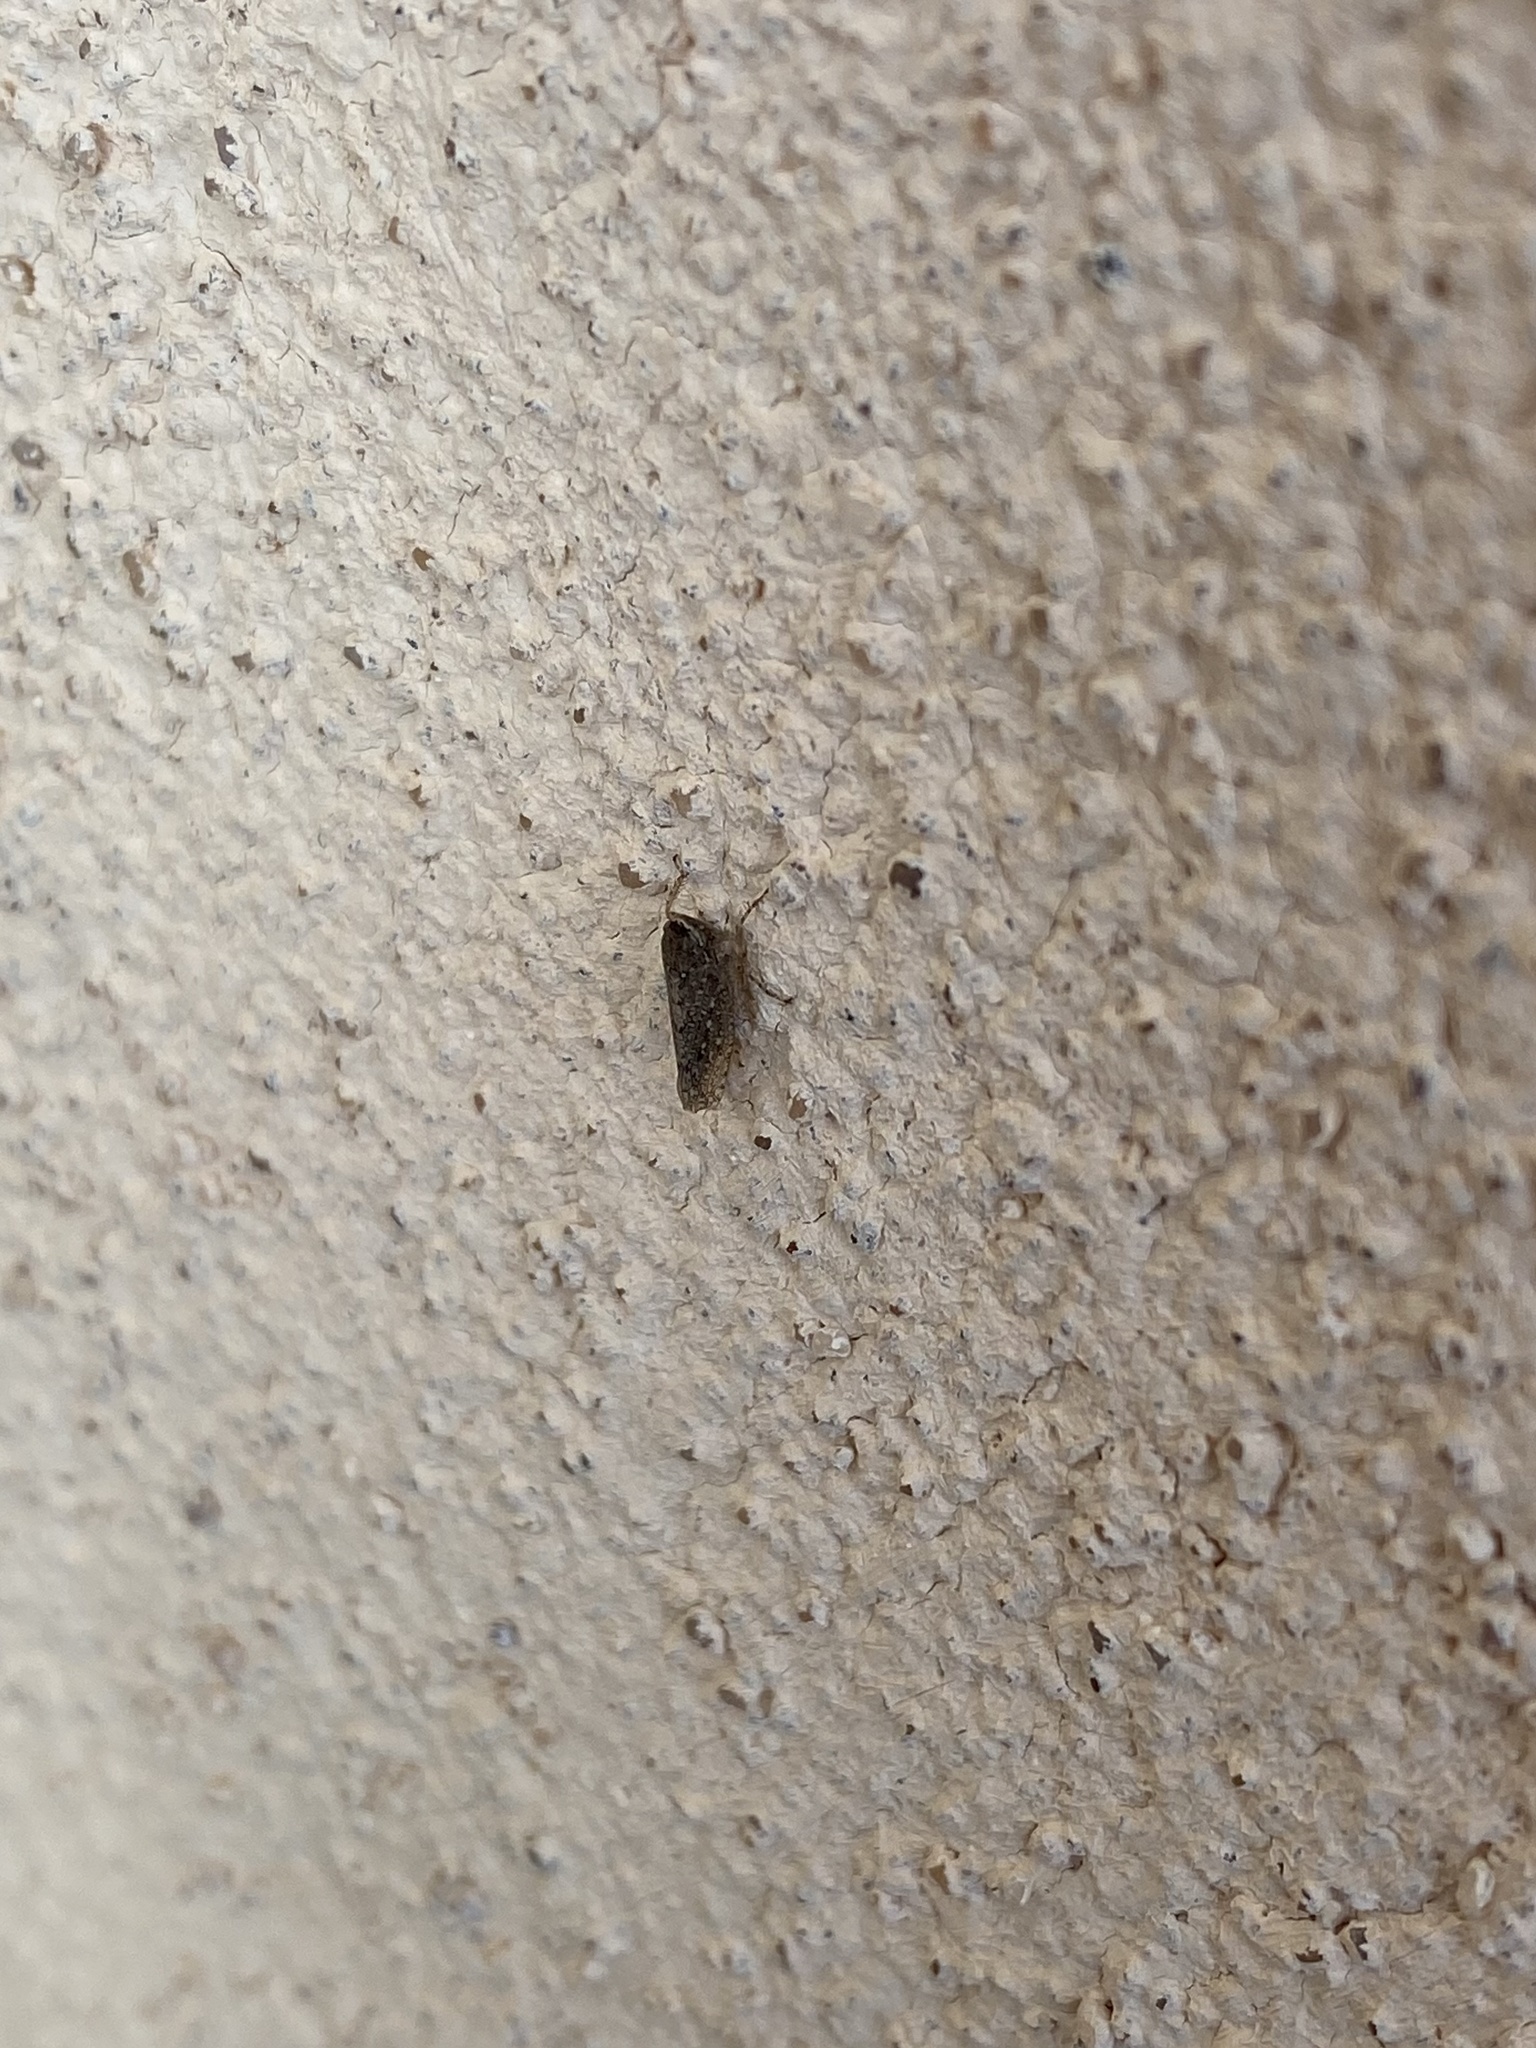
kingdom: Animalia
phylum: Arthropoda
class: Insecta
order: Hemiptera
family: Cicadellidae
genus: Texananus
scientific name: Texananus
